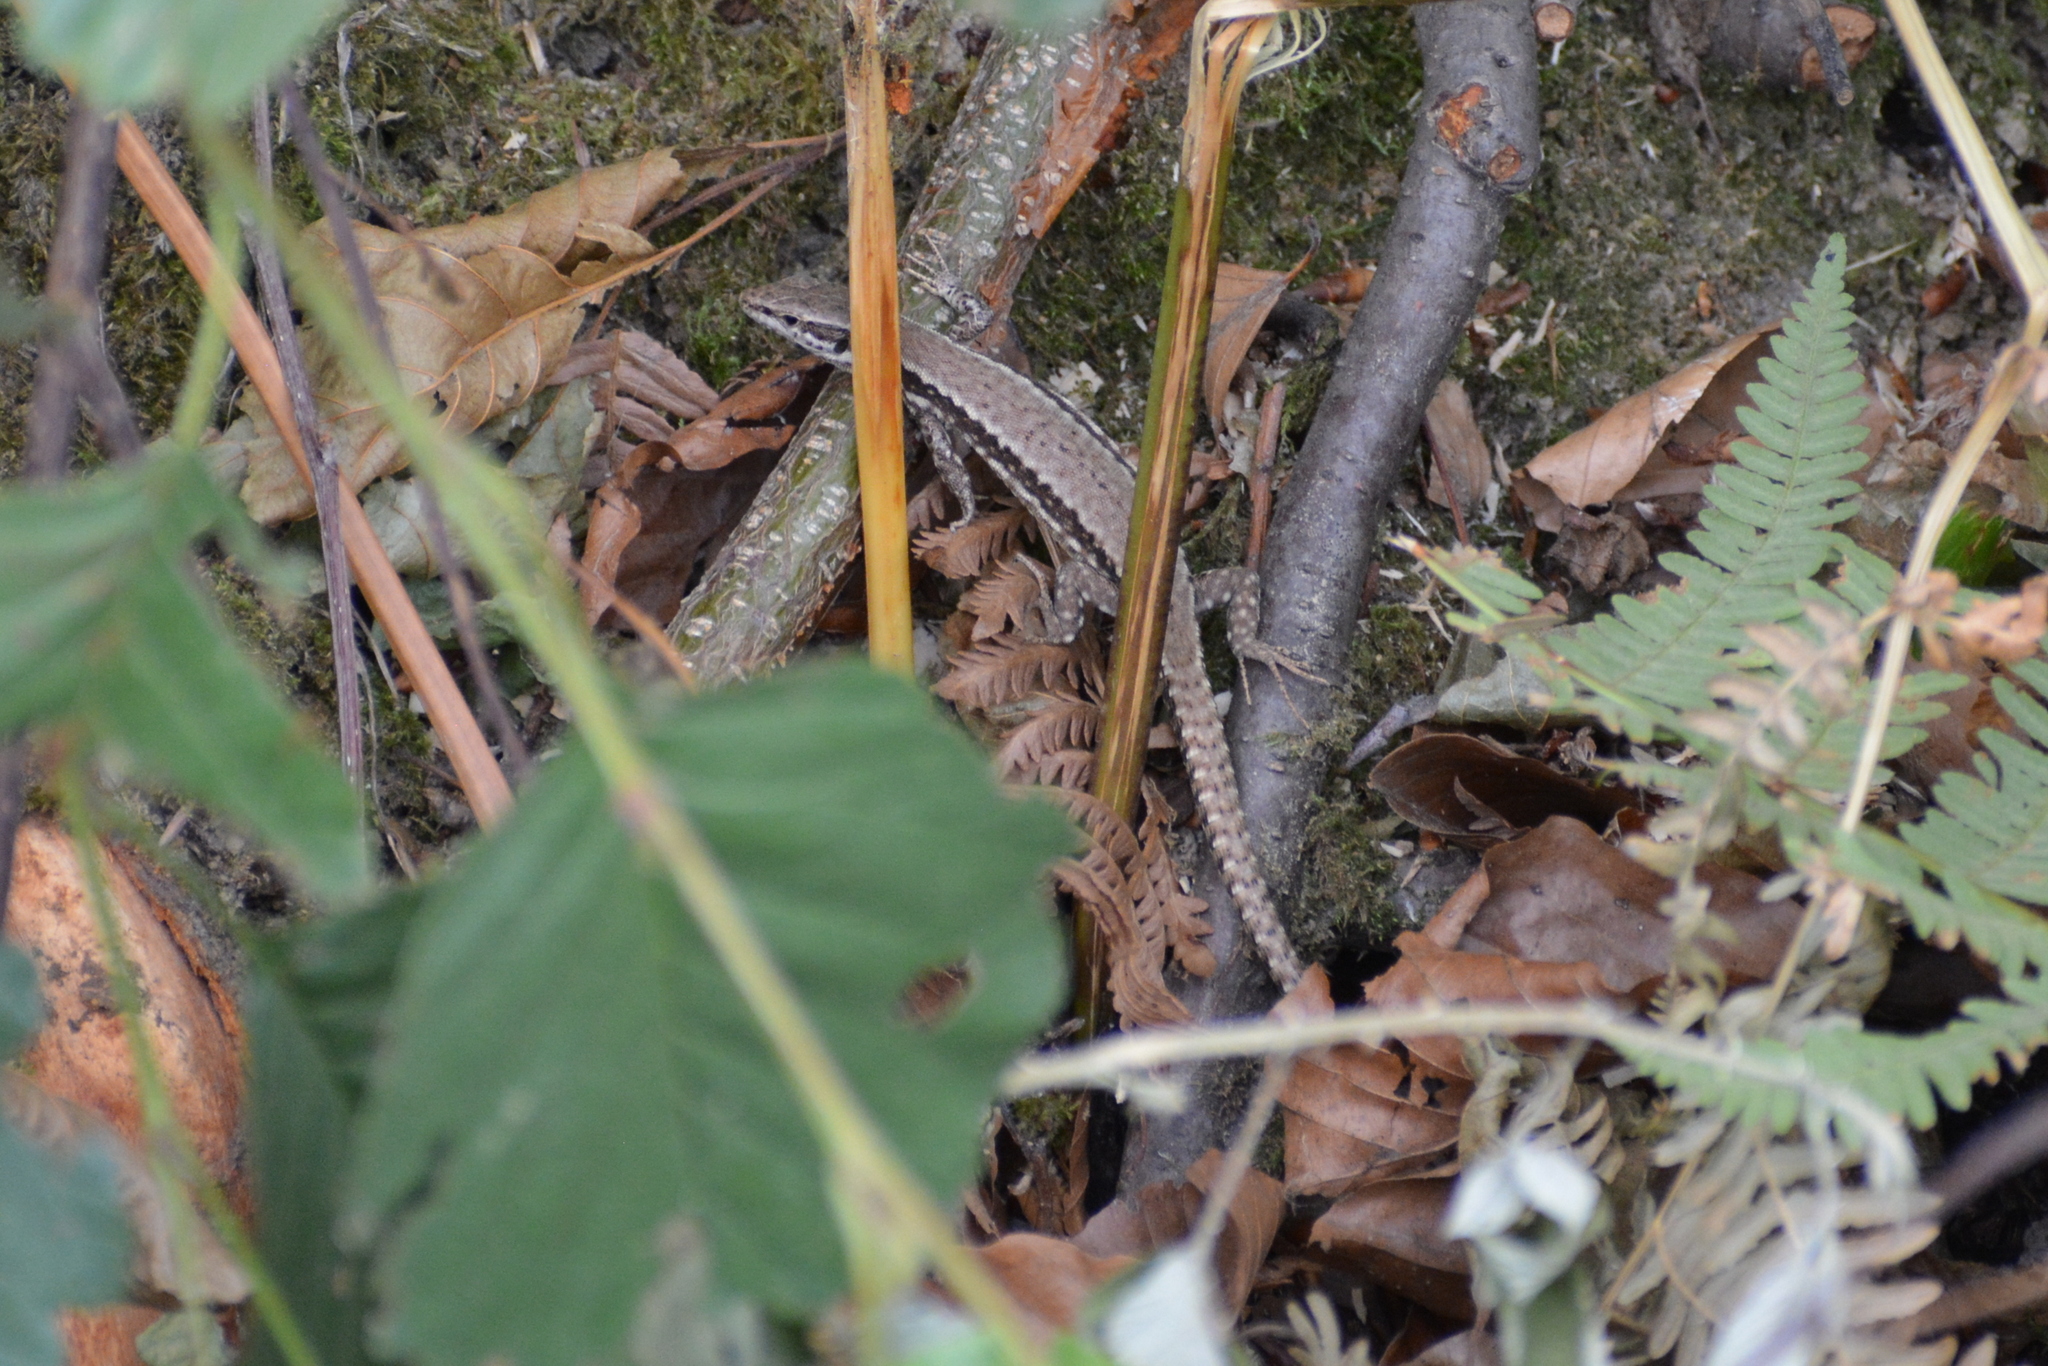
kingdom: Animalia
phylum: Chordata
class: Squamata
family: Lacertidae
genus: Podarcis
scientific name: Podarcis muralis
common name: Common wall lizard
